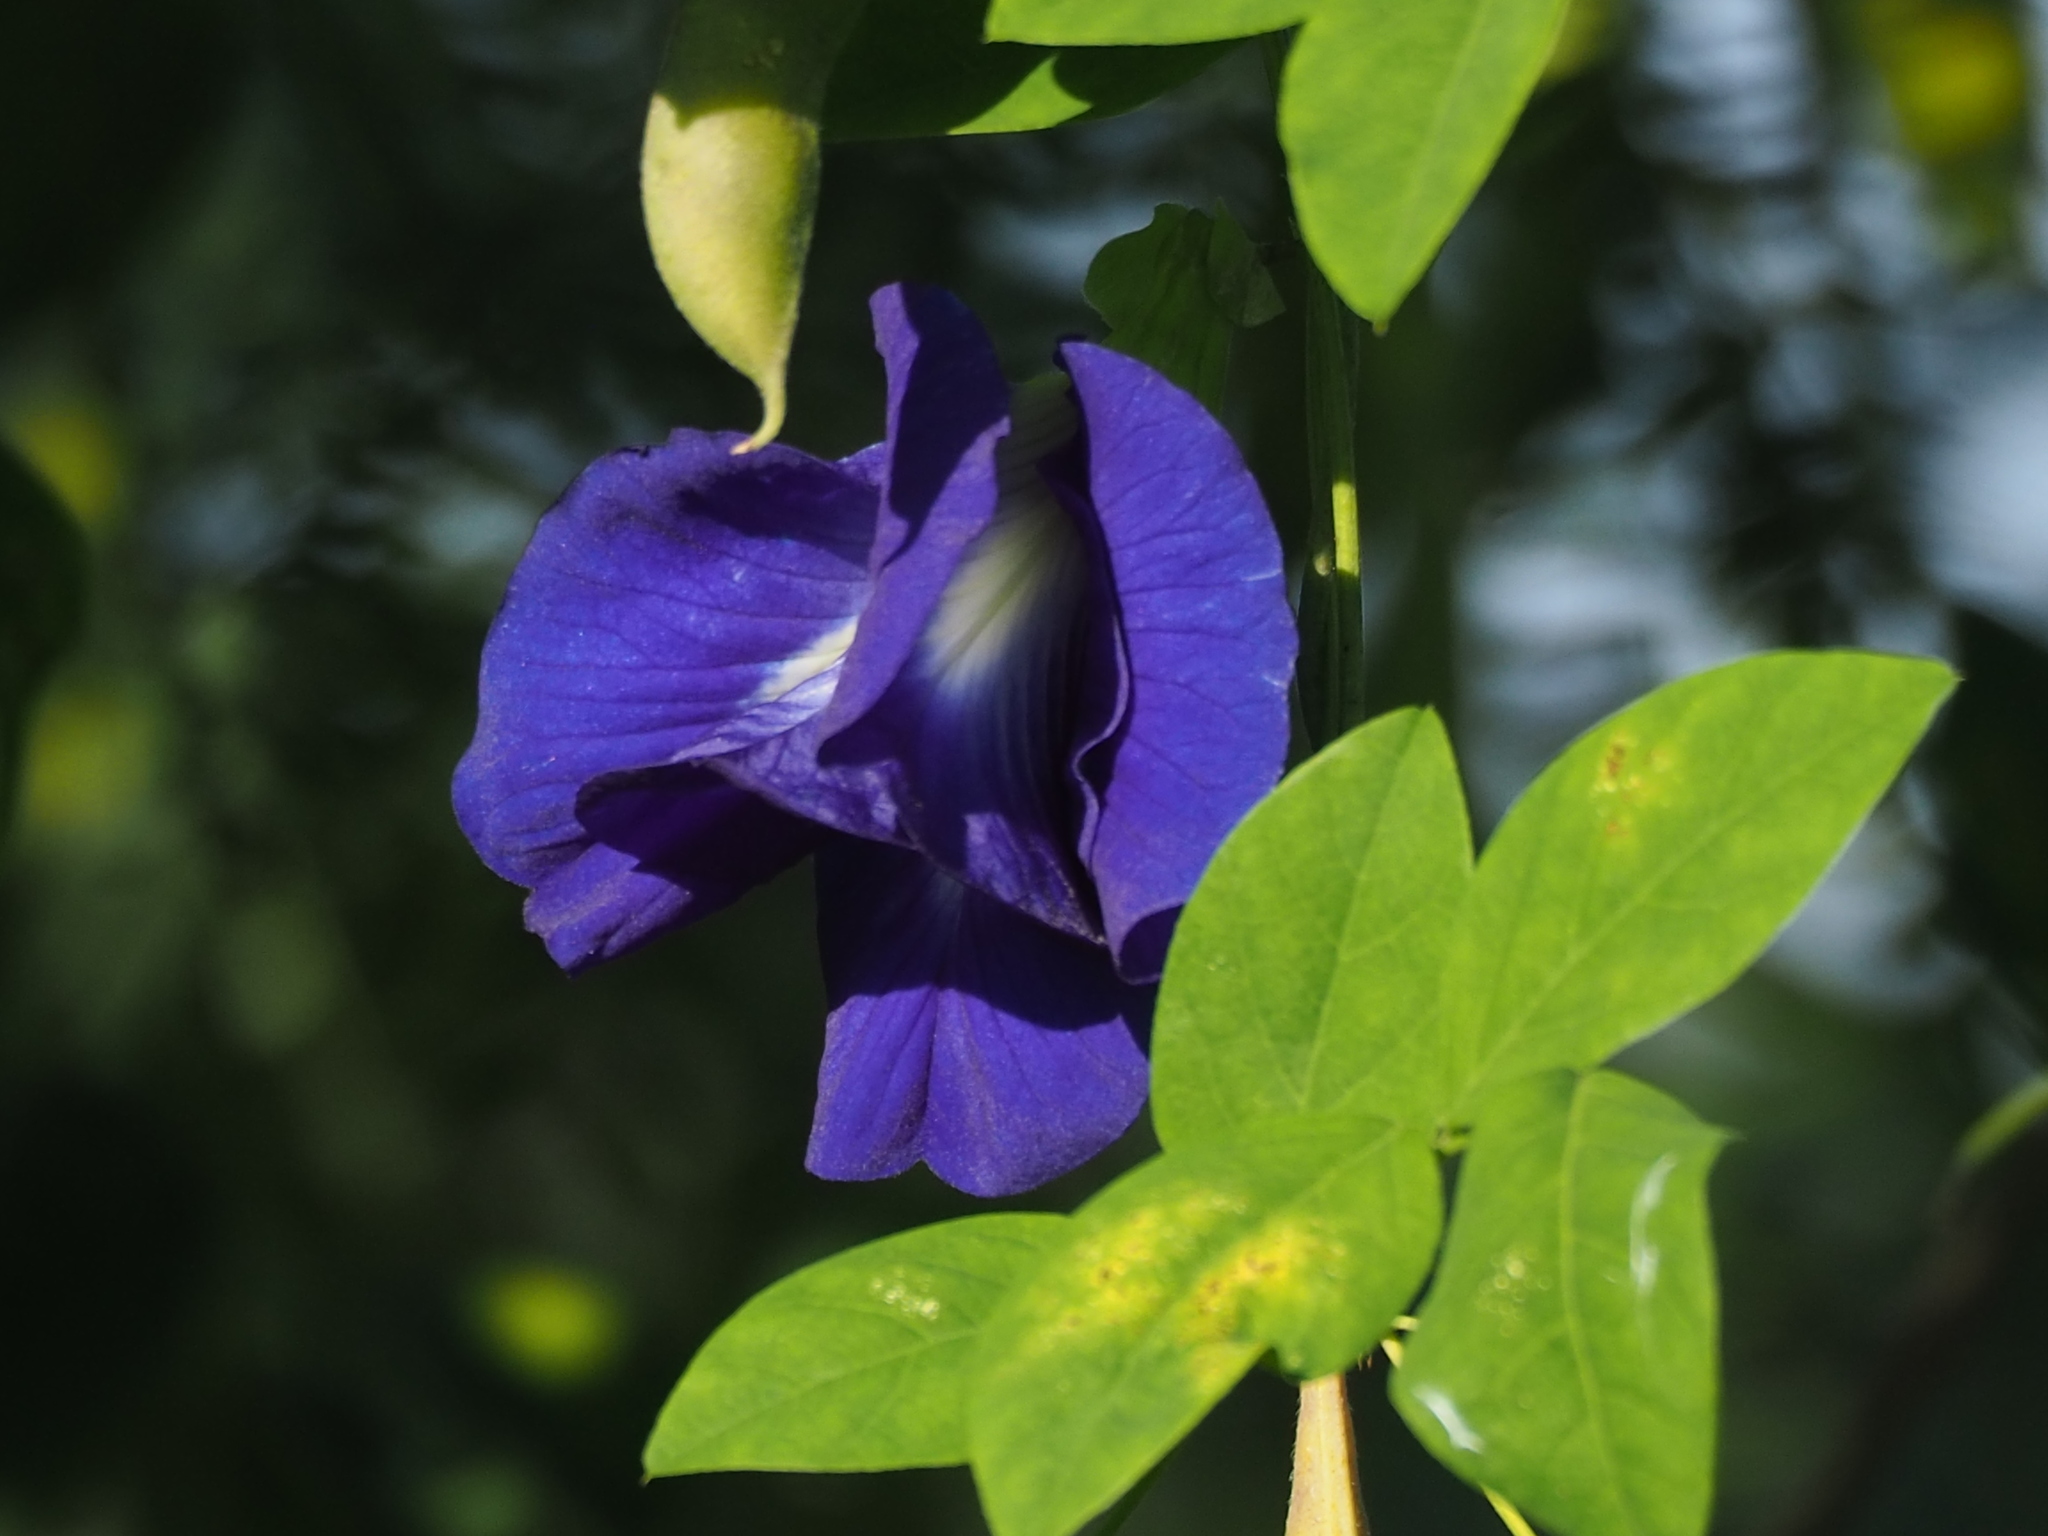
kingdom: Plantae
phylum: Tracheophyta
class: Magnoliopsida
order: Fabales
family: Fabaceae
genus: Clitoria
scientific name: Clitoria ternatea
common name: Asian pigeonwings
